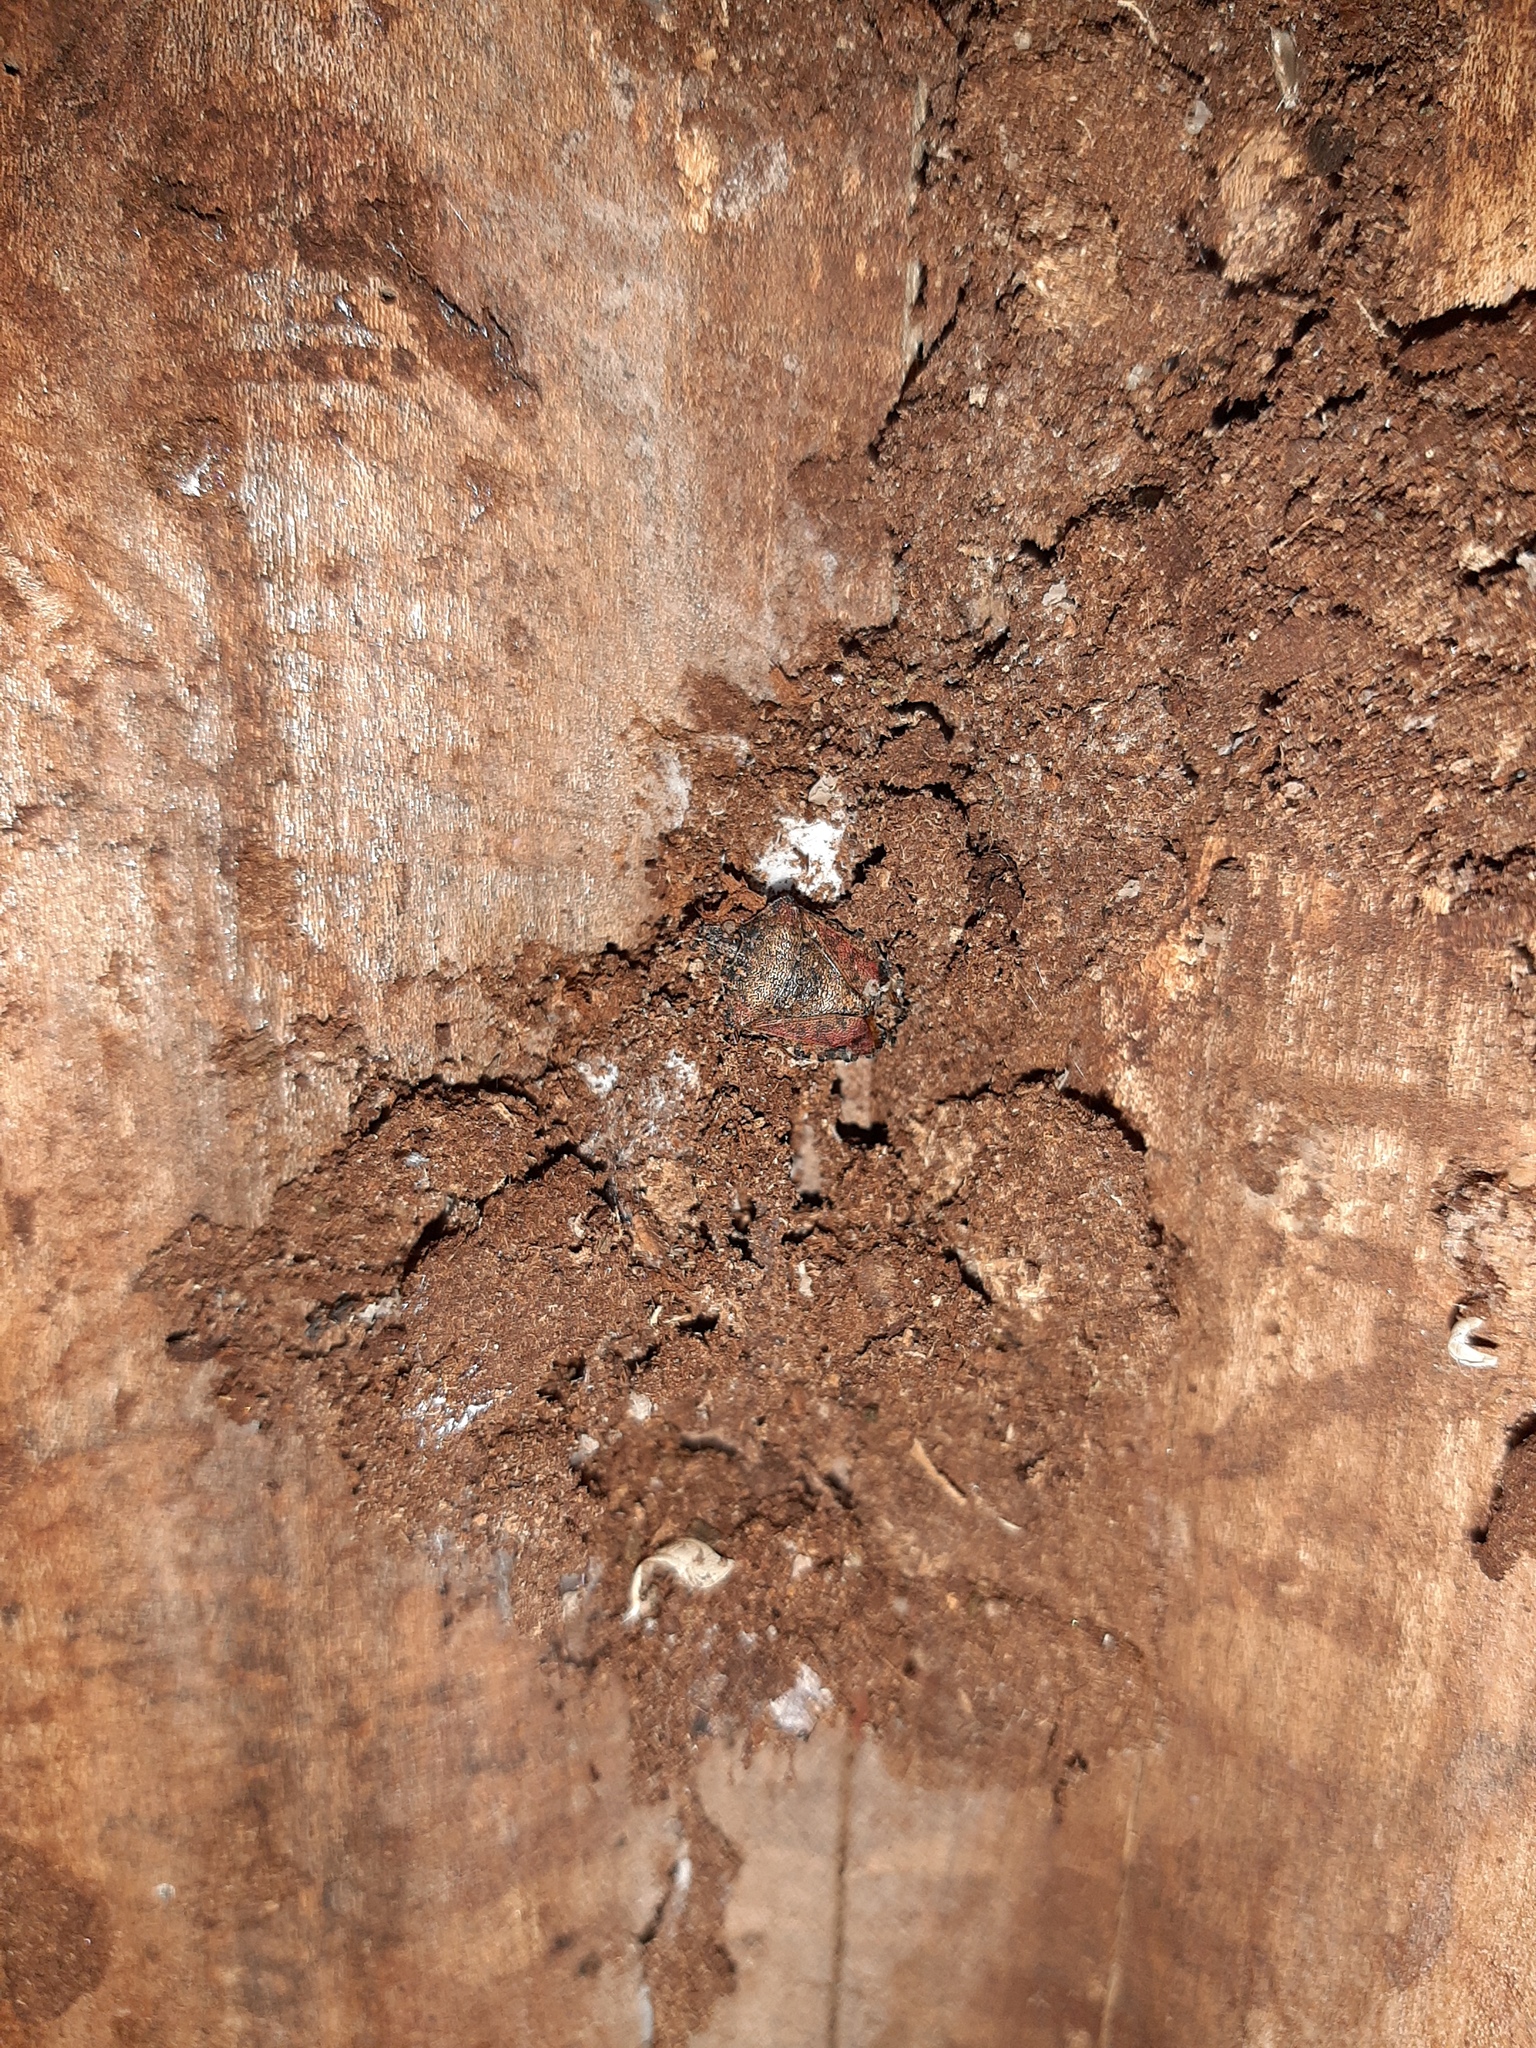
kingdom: Animalia
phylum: Arthropoda
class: Insecta
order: Hemiptera
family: Pentatomidae
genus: Halyomorpha
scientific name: Halyomorpha halys
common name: Brown marmorated stink bug
